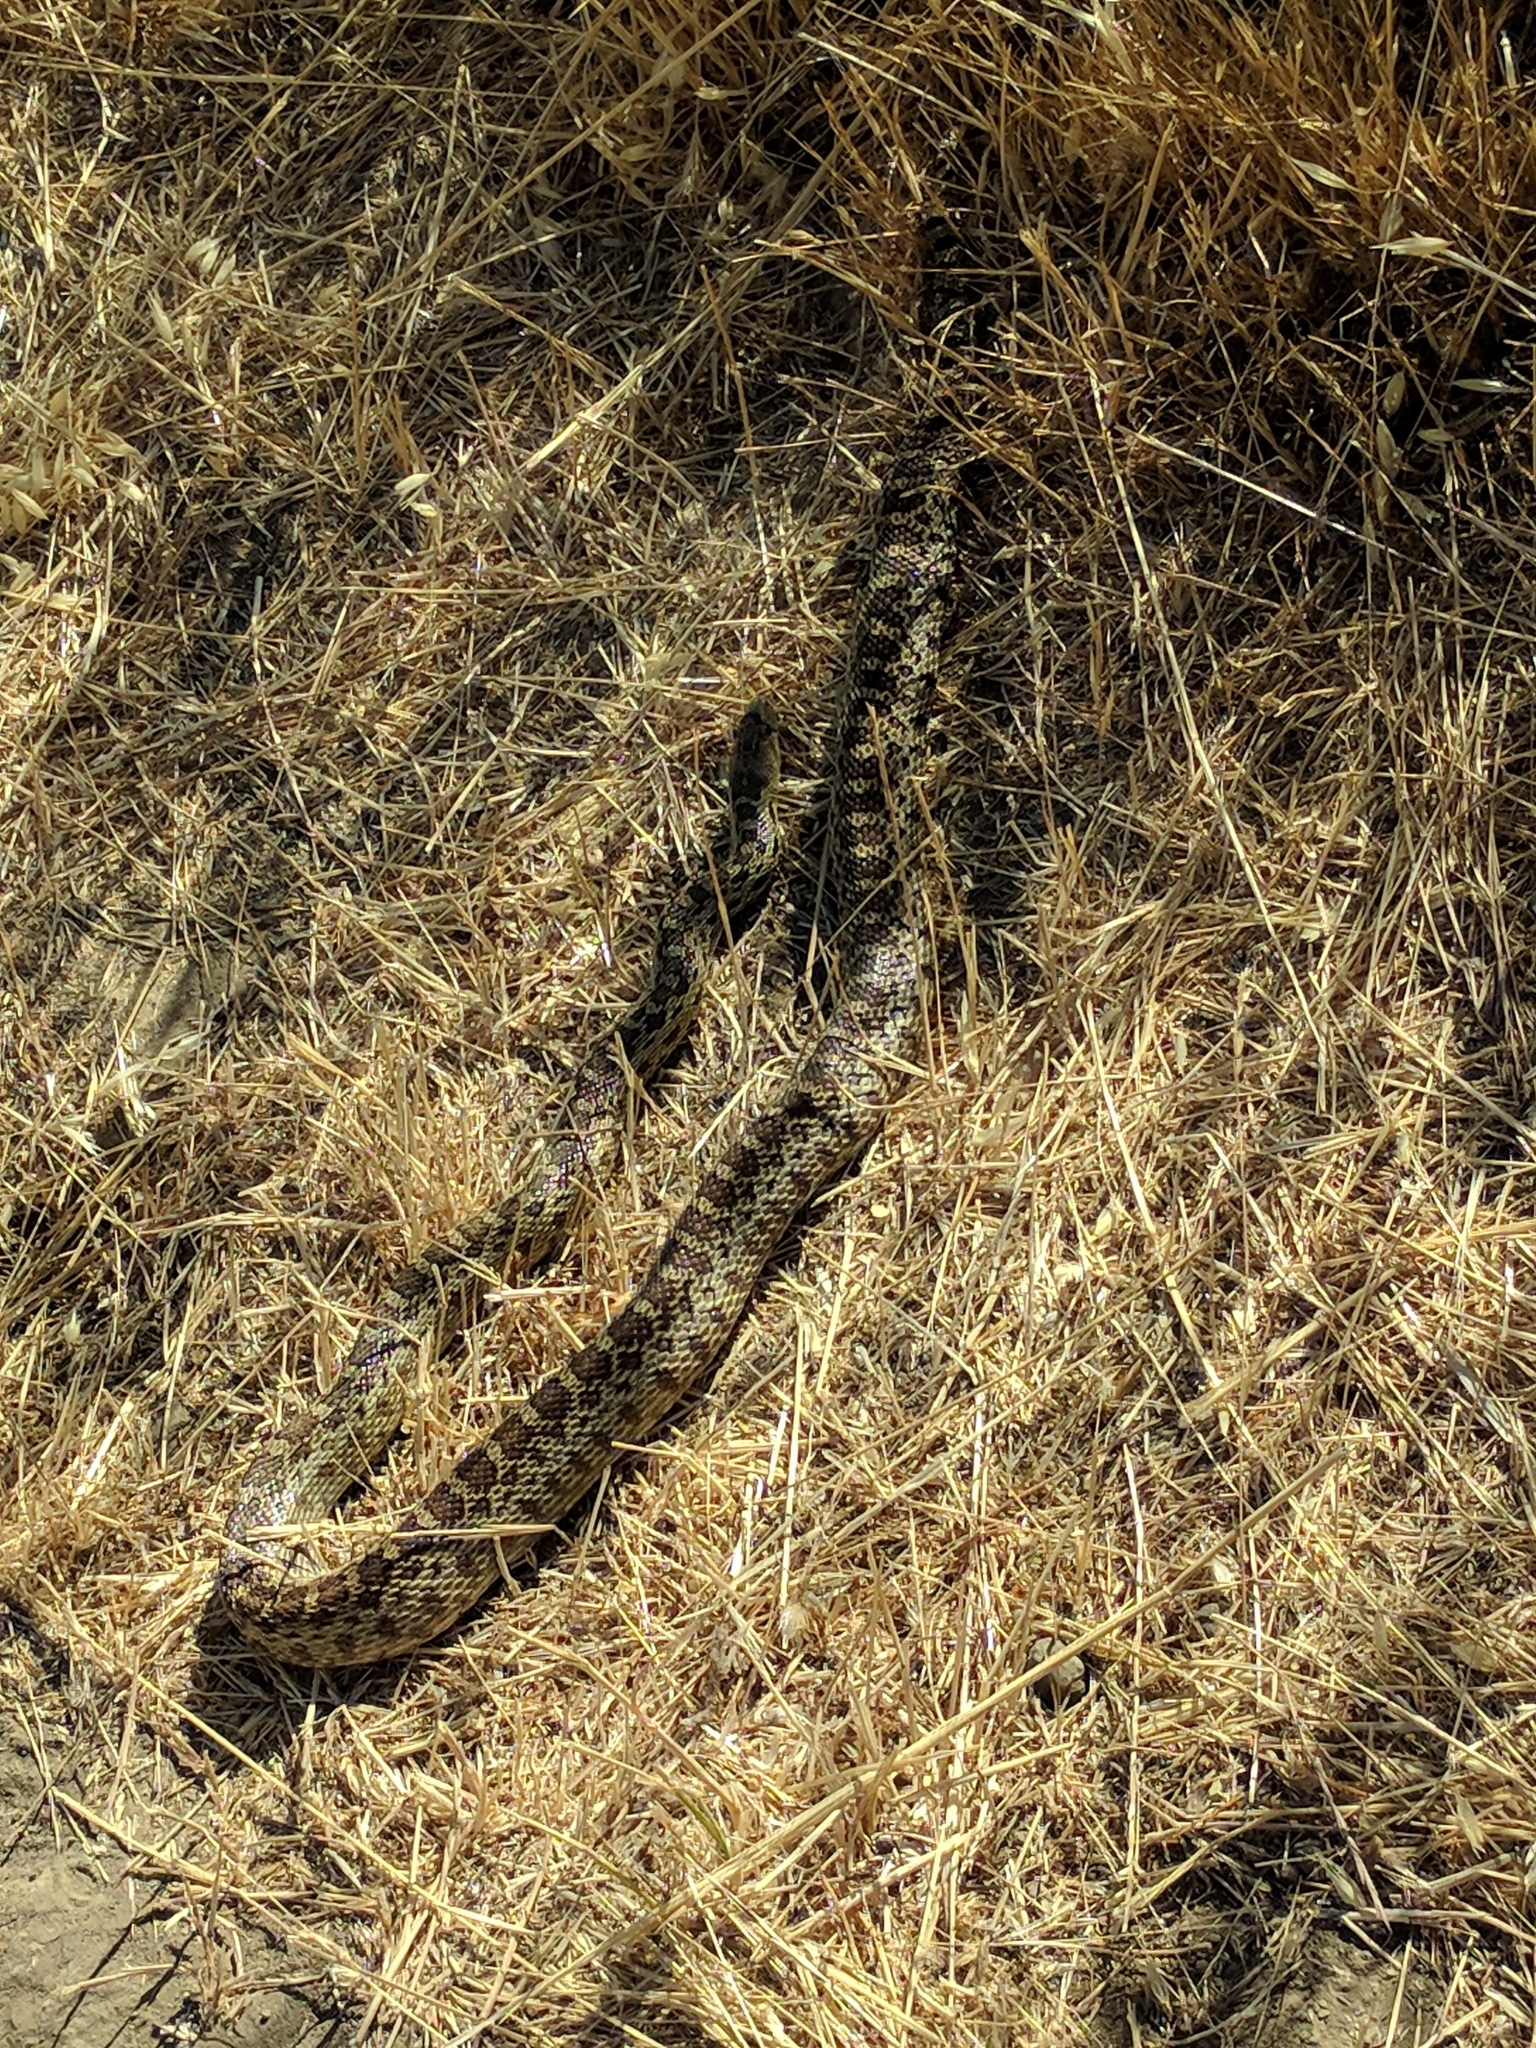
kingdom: Animalia
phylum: Chordata
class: Squamata
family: Colubridae
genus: Pituophis
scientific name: Pituophis catenifer
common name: Gopher snake
